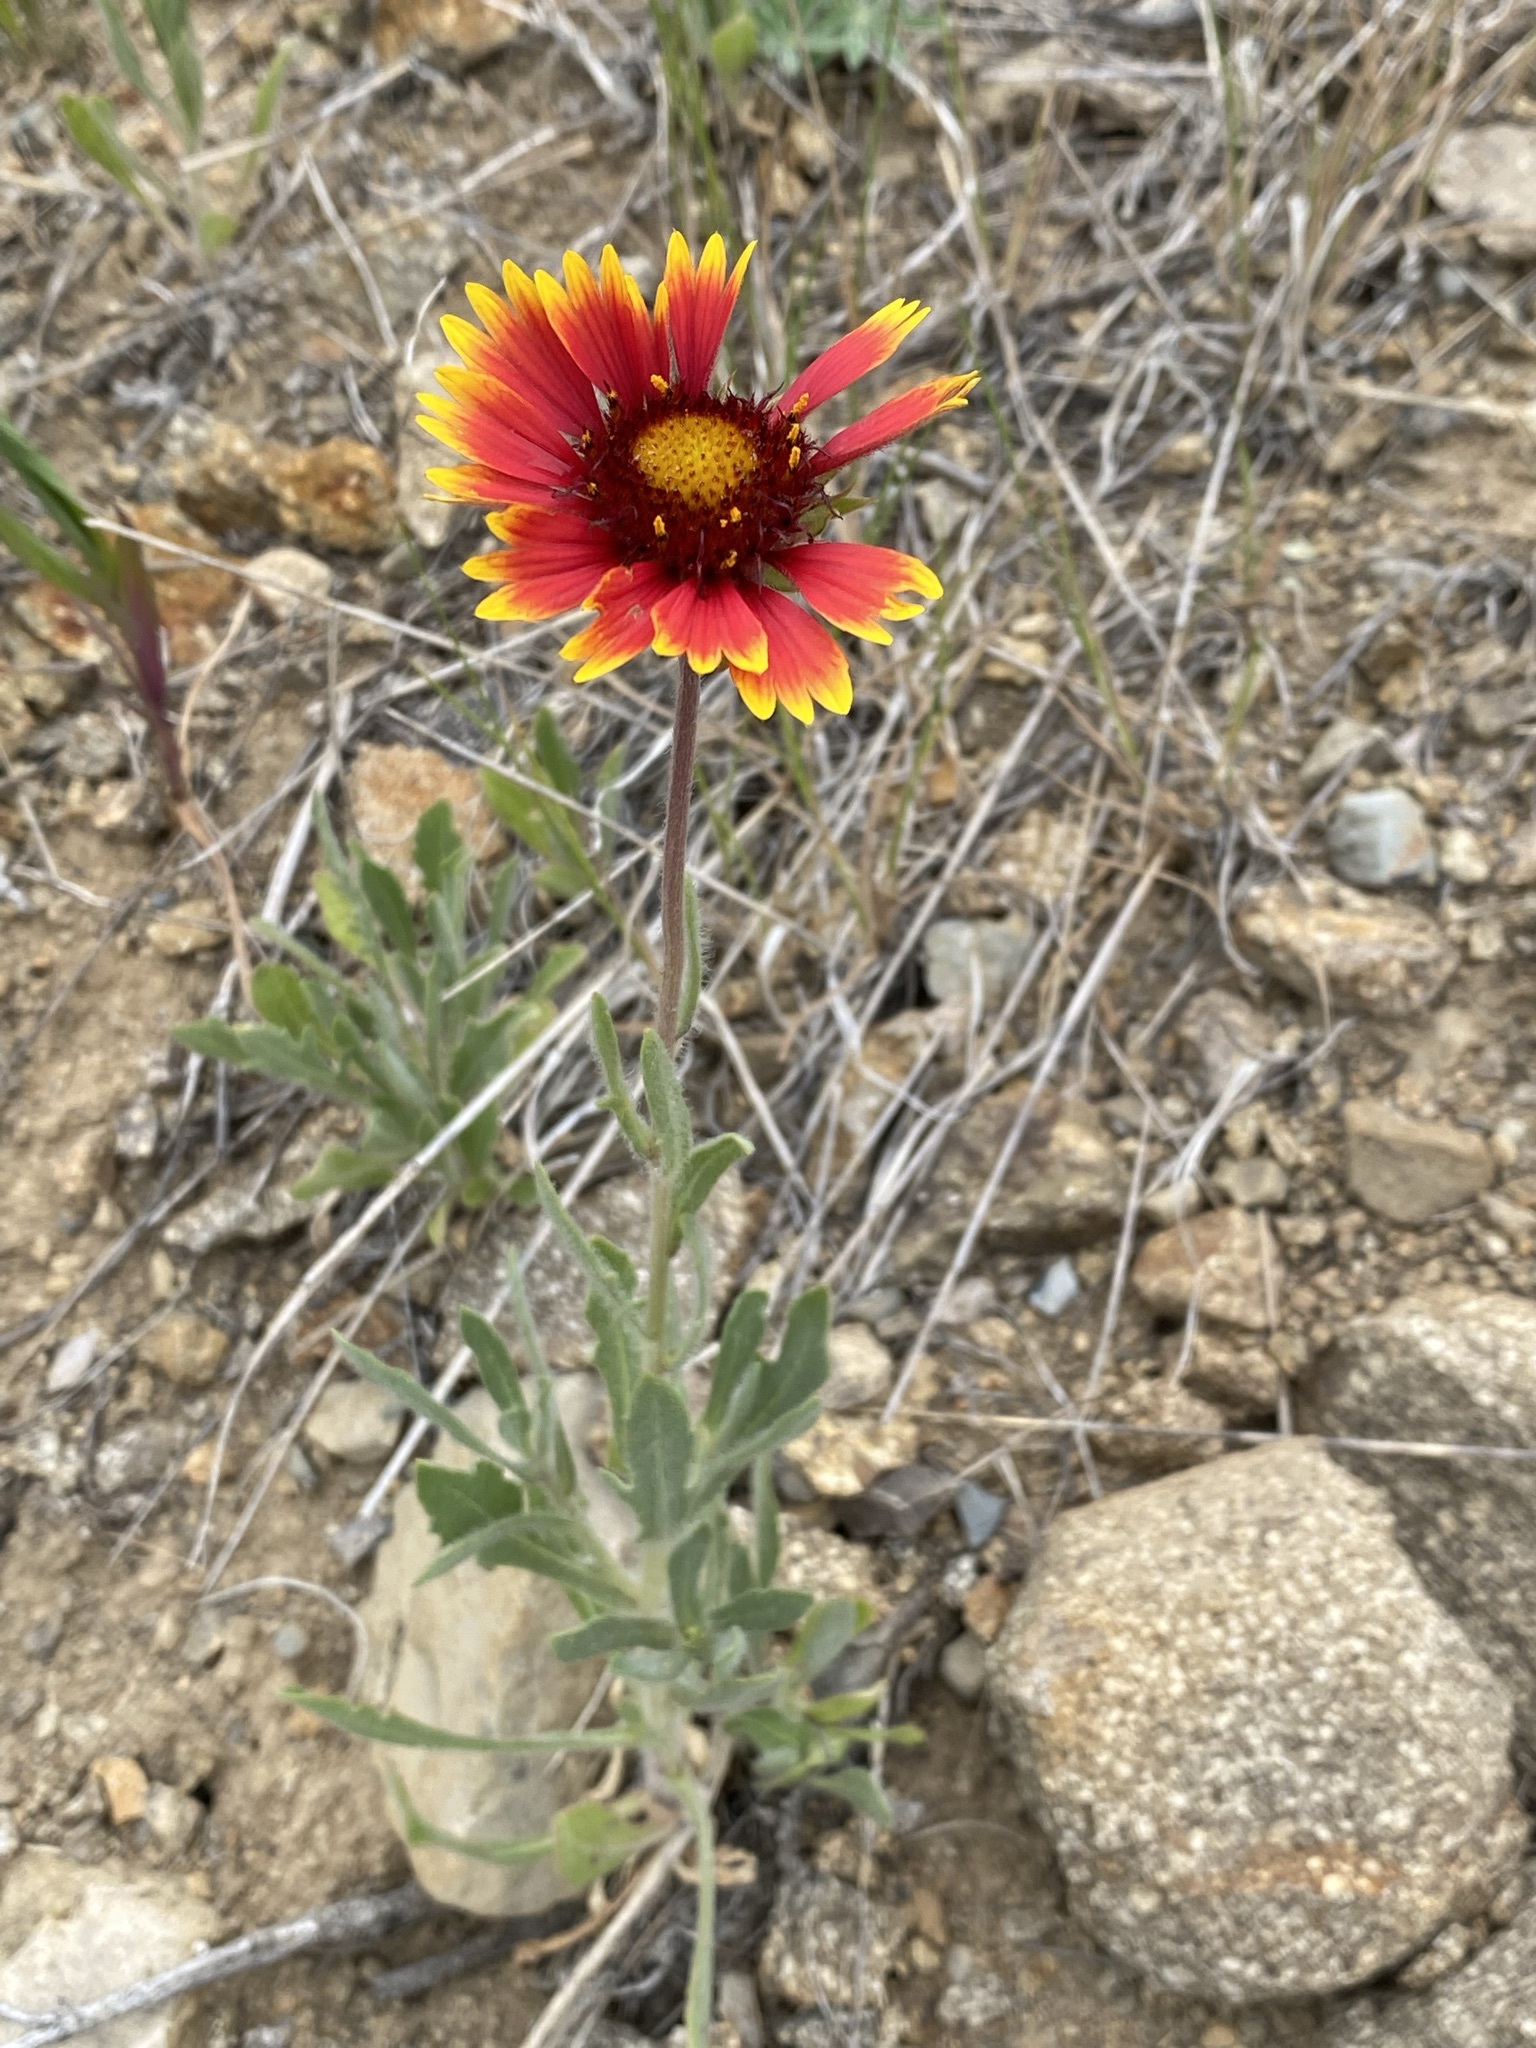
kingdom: Plantae
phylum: Tracheophyta
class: Magnoliopsida
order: Asterales
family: Asteraceae
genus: Gaillardia
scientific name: Gaillardia pulchella
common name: Firewheel
